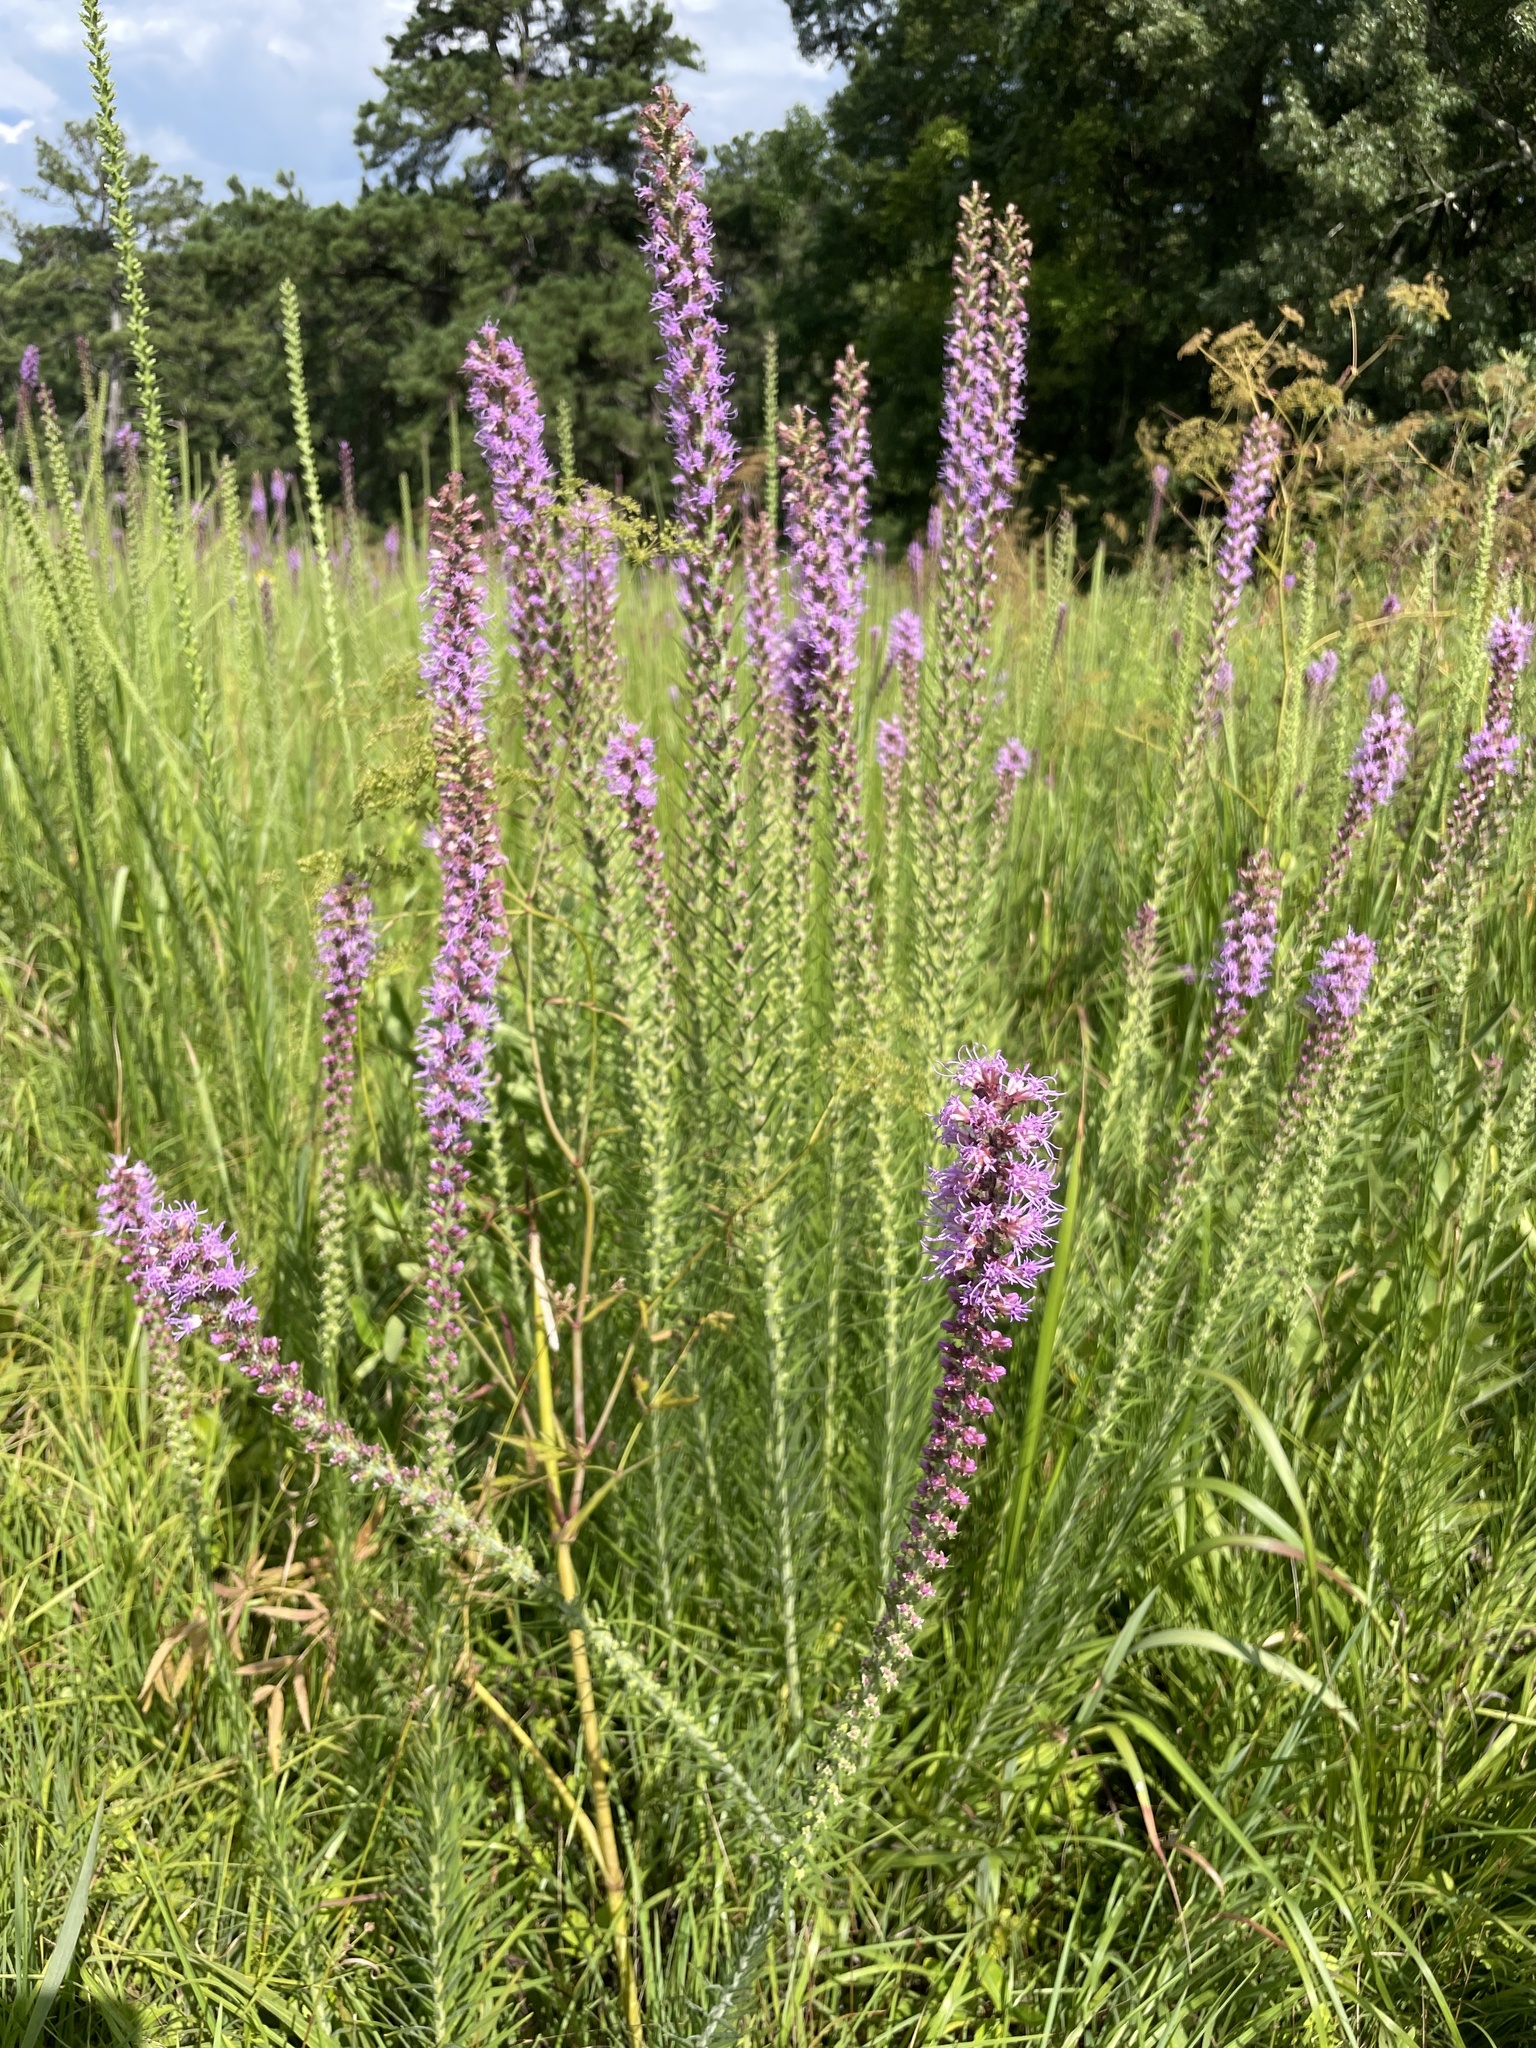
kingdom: Plantae
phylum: Tracheophyta
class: Magnoliopsida
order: Asterales
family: Asteraceae
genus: Liatris
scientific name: Liatris pycnostachya
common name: Cattail gayfeather
